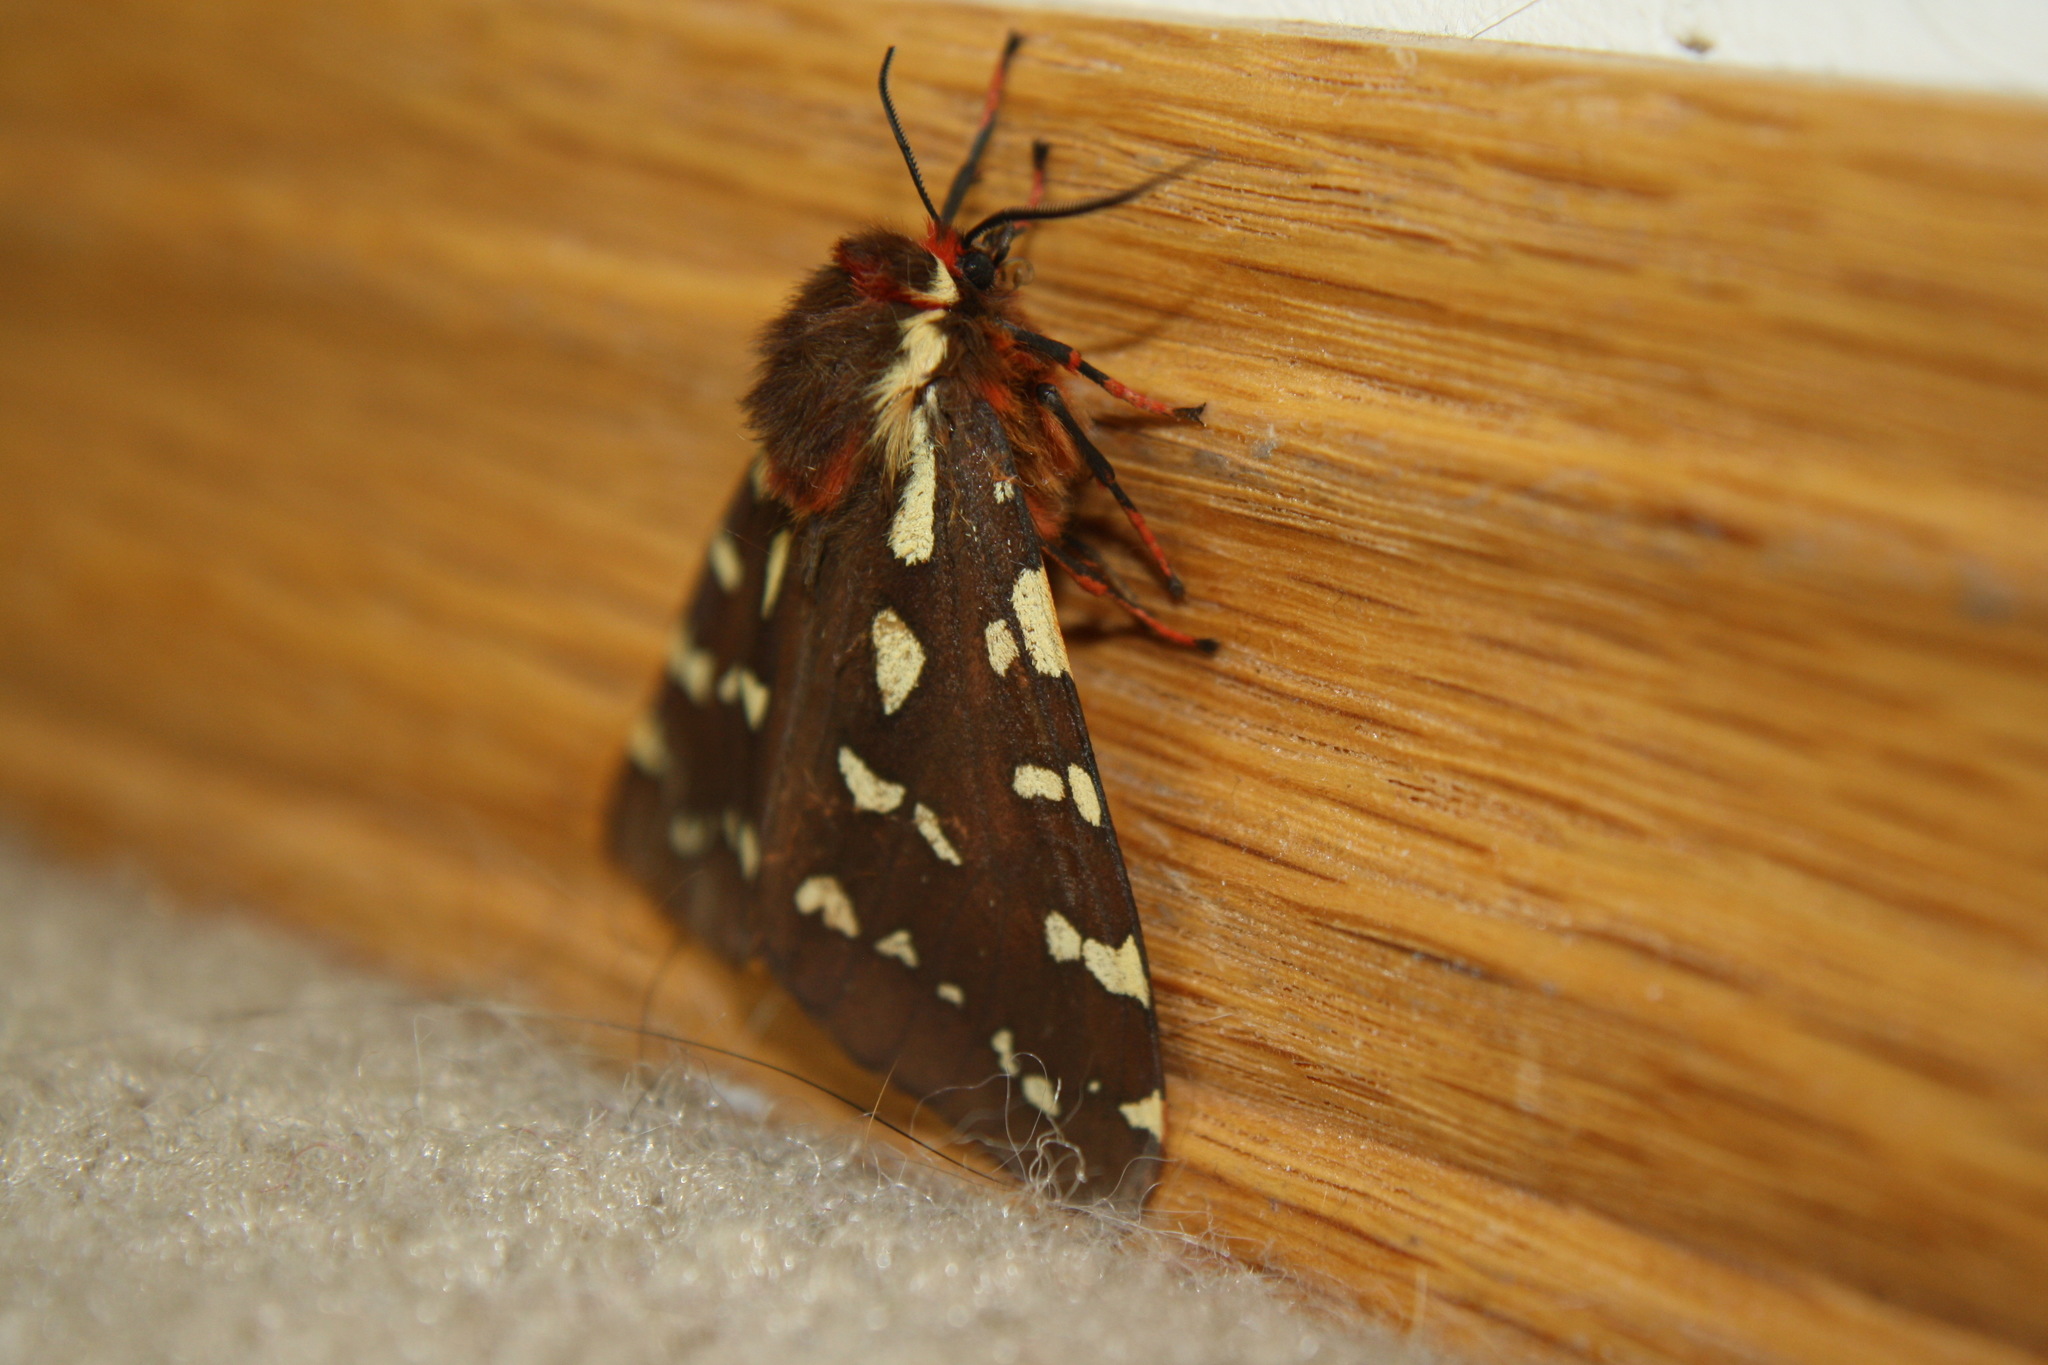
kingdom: Animalia
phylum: Arthropoda
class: Insecta
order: Lepidoptera
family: Erebidae
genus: Arctia
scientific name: Arctia parthenos
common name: St. lawrence tiger moth
